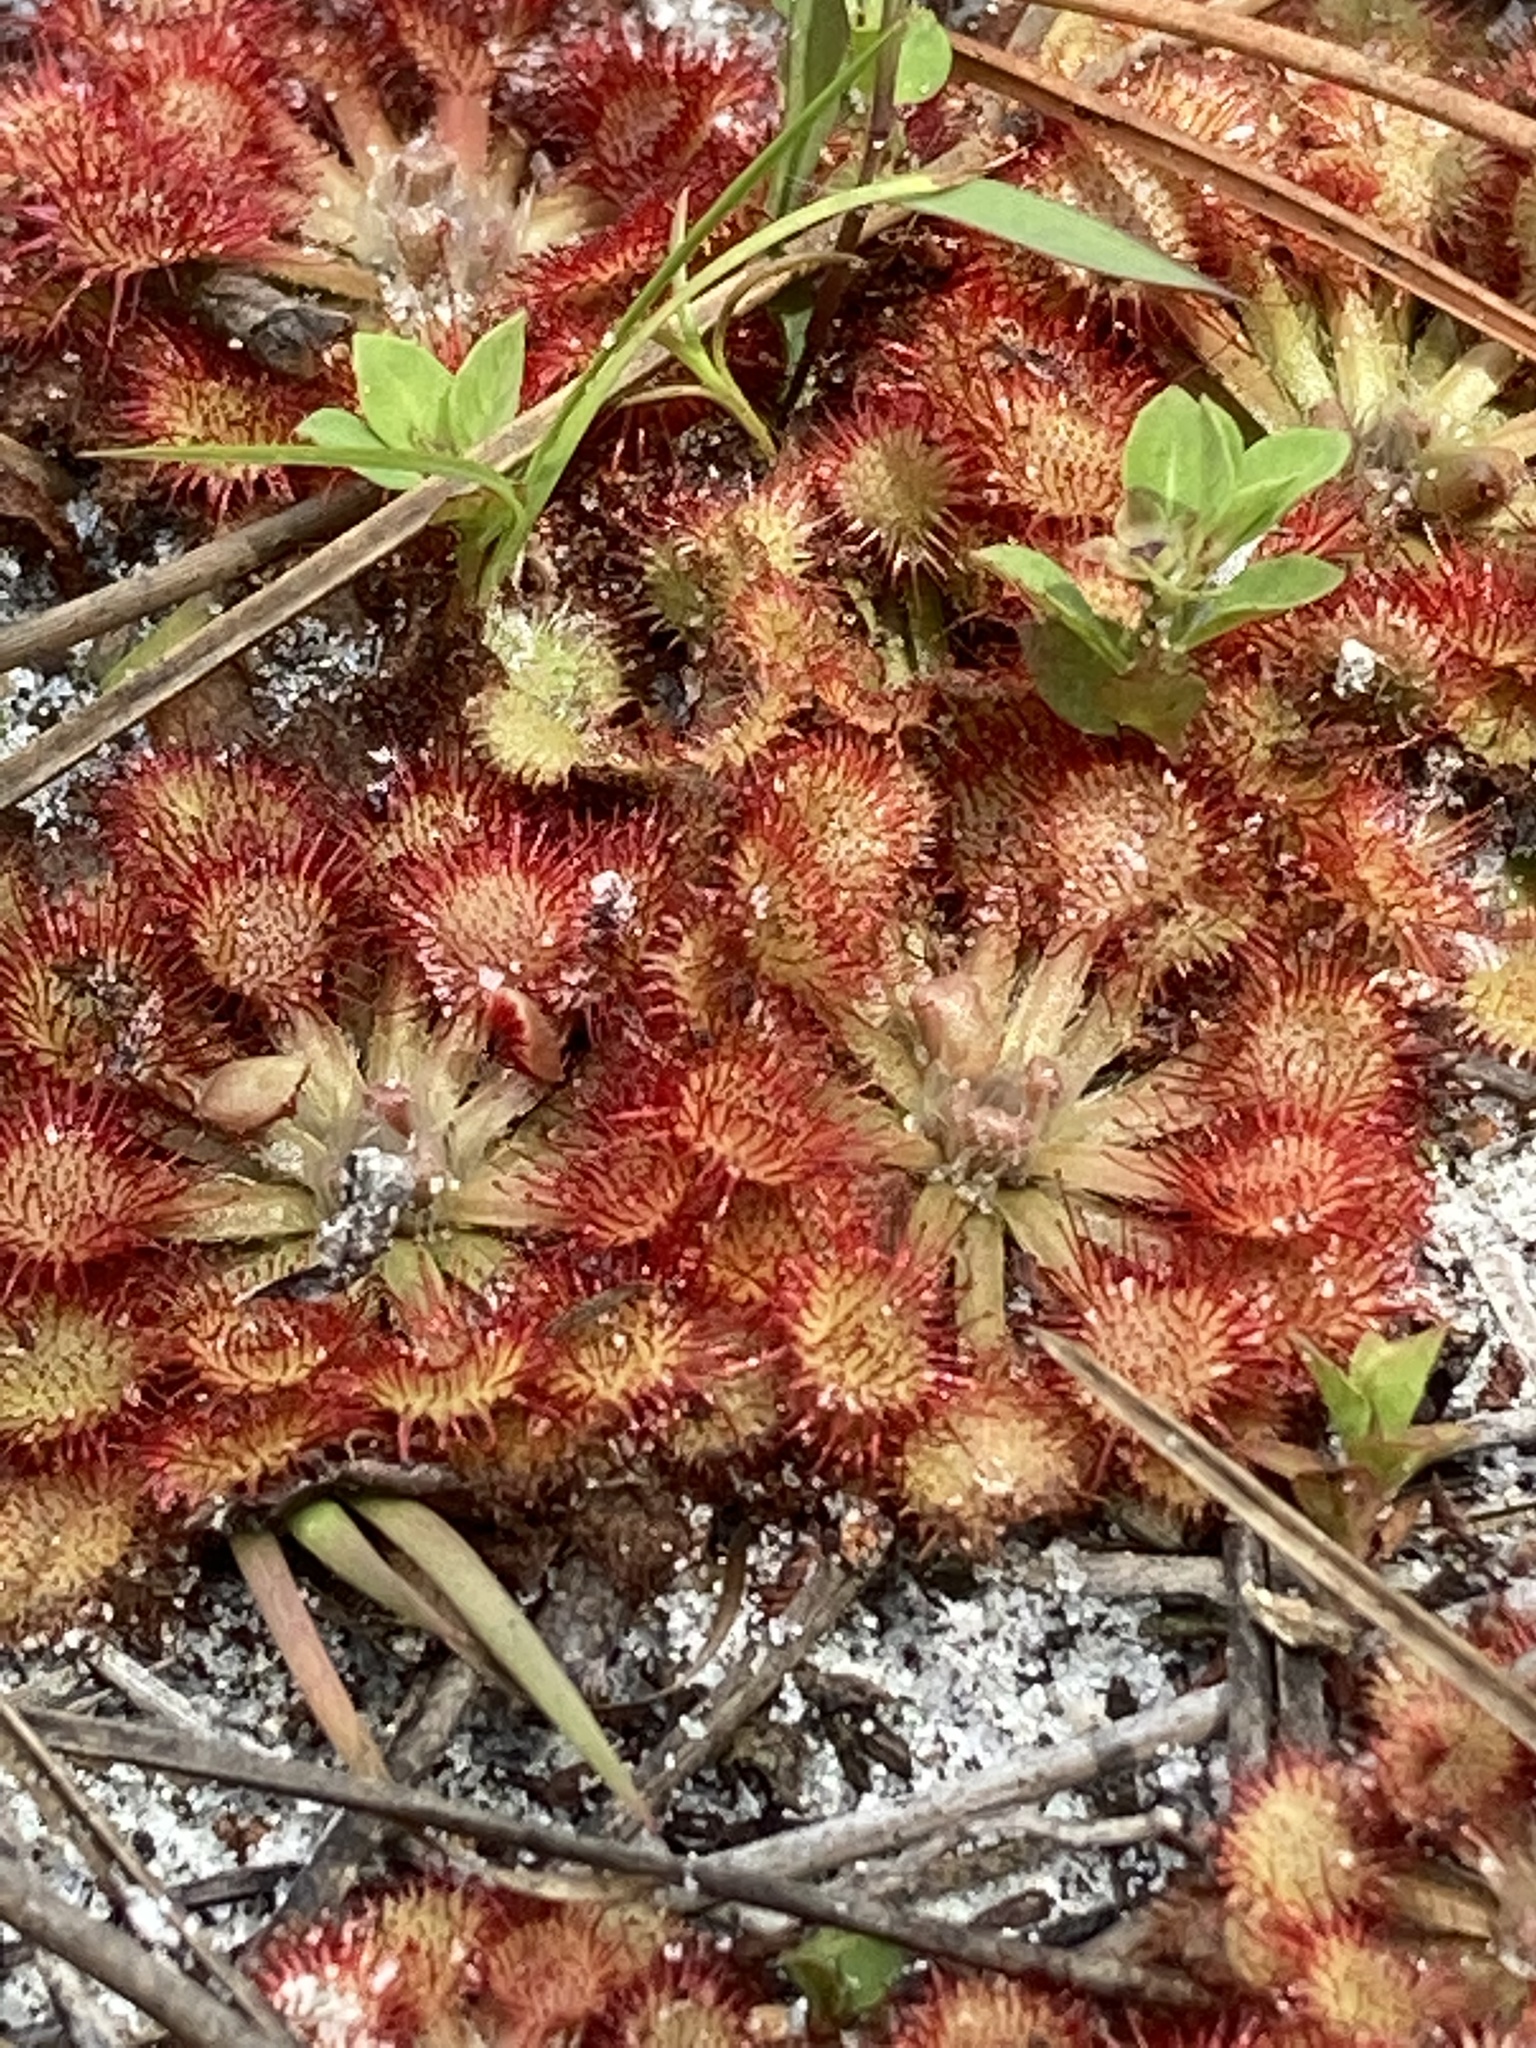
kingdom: Plantae
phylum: Tracheophyta
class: Magnoliopsida
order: Caryophyllales
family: Droseraceae
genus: Drosera
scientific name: Drosera capillaris
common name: Pink sundew
